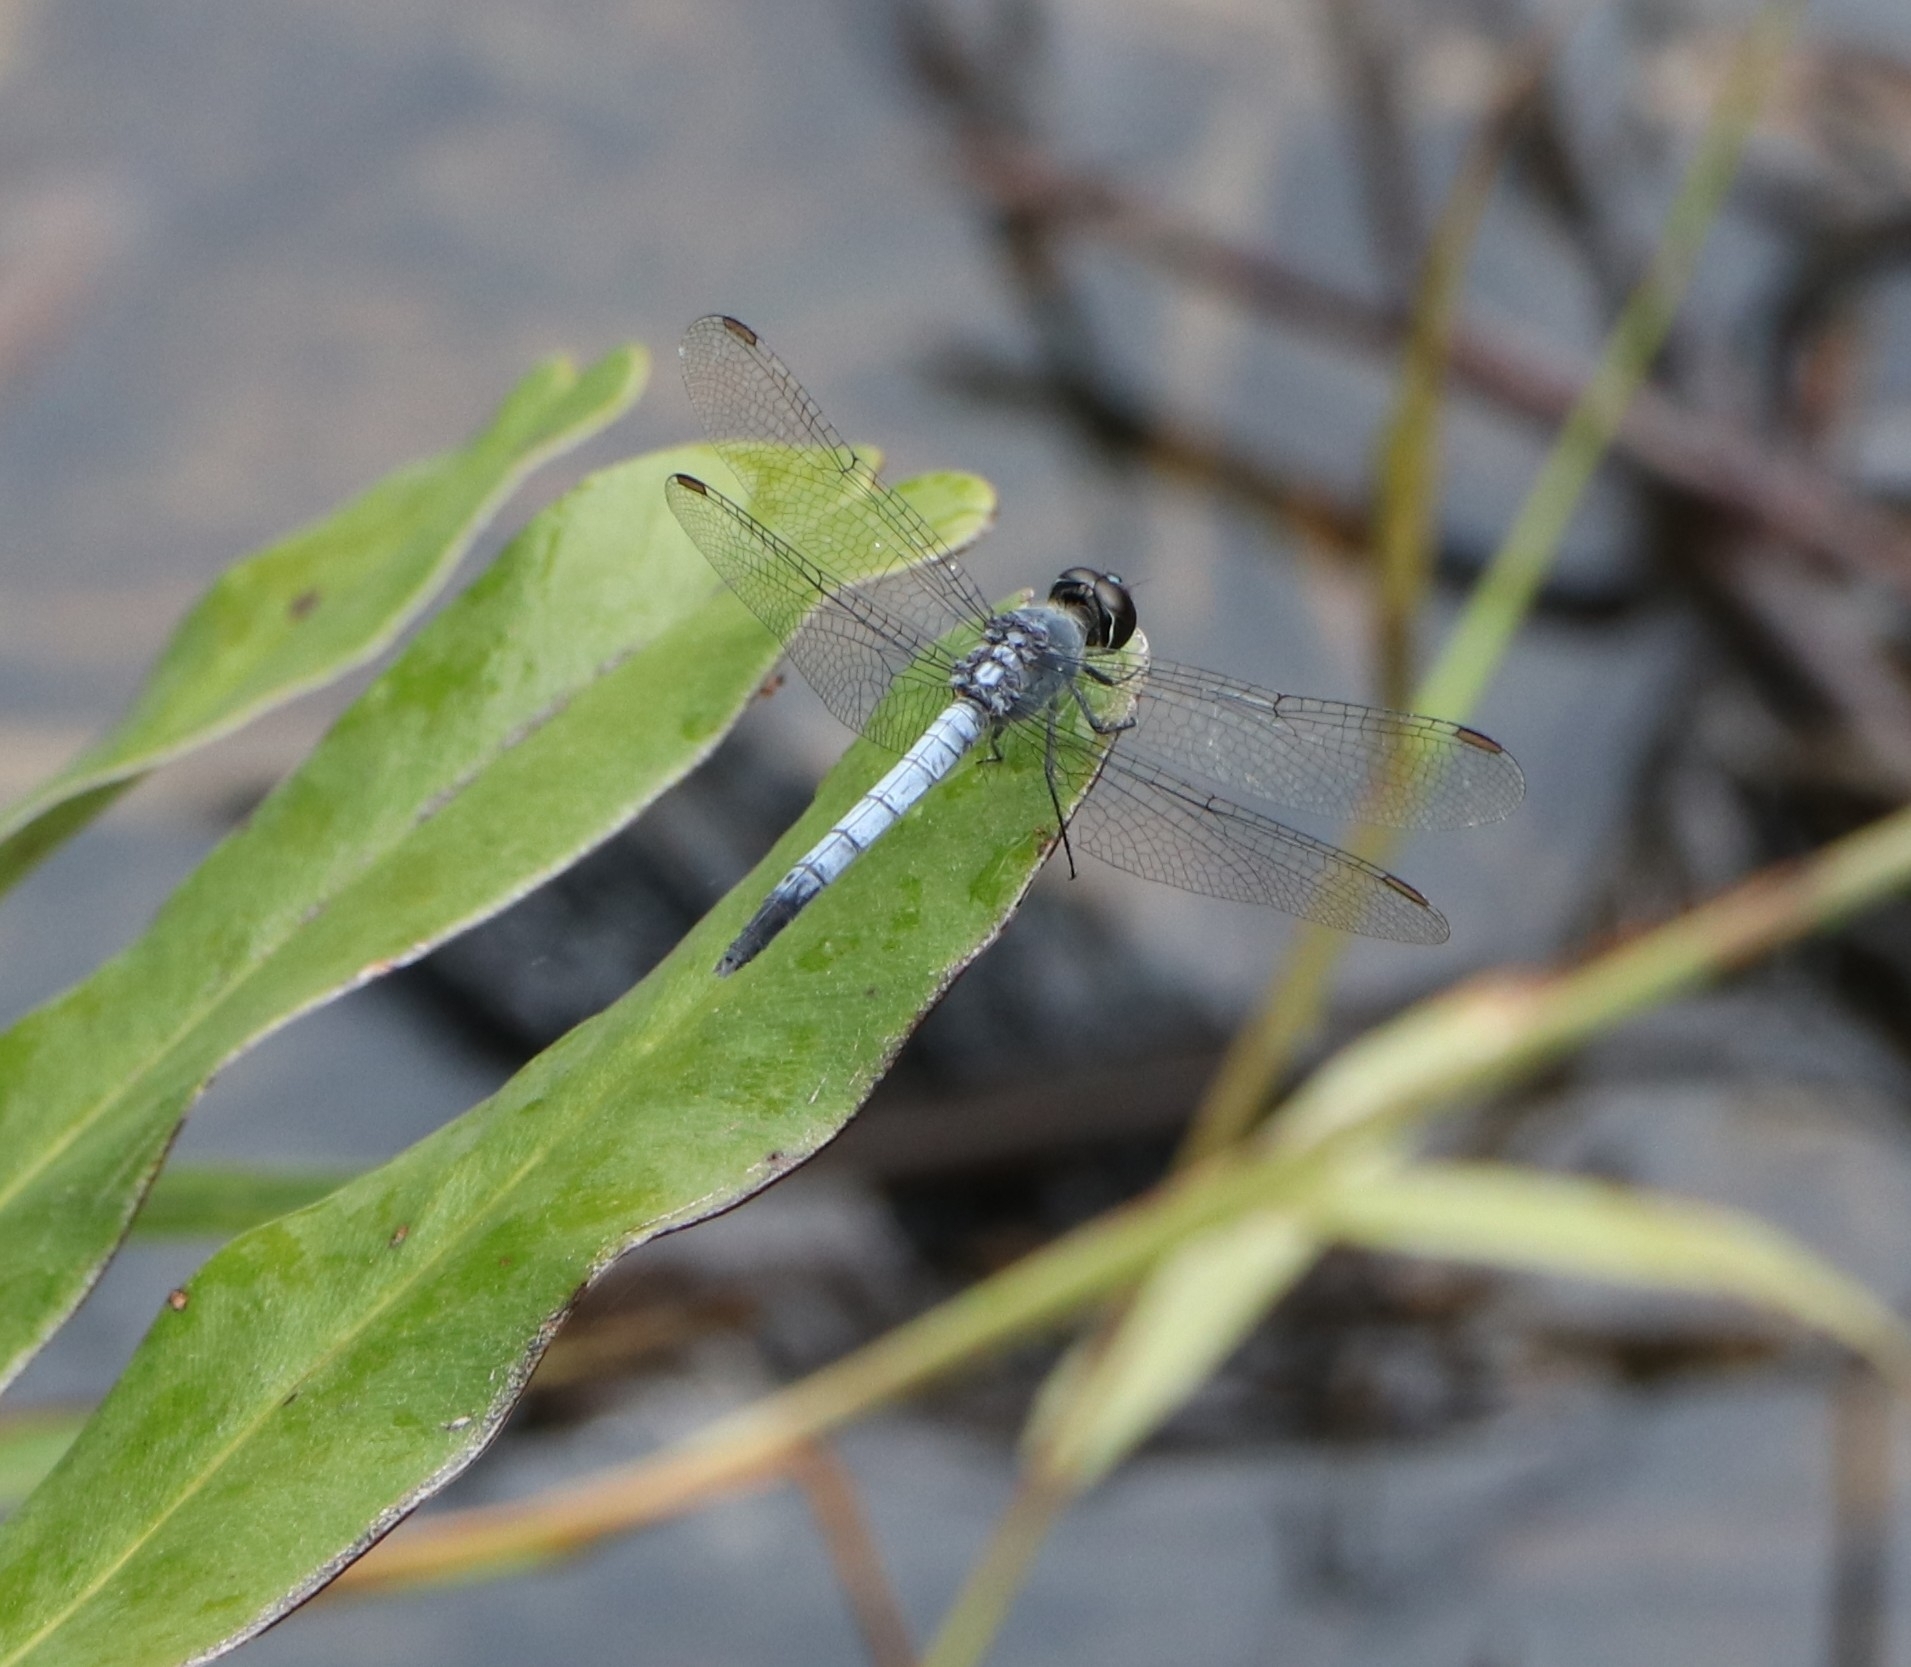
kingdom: Animalia
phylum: Arthropoda
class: Insecta
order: Odonata
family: Libellulidae
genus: Brachydiplax
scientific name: Brachydiplax sobrina
